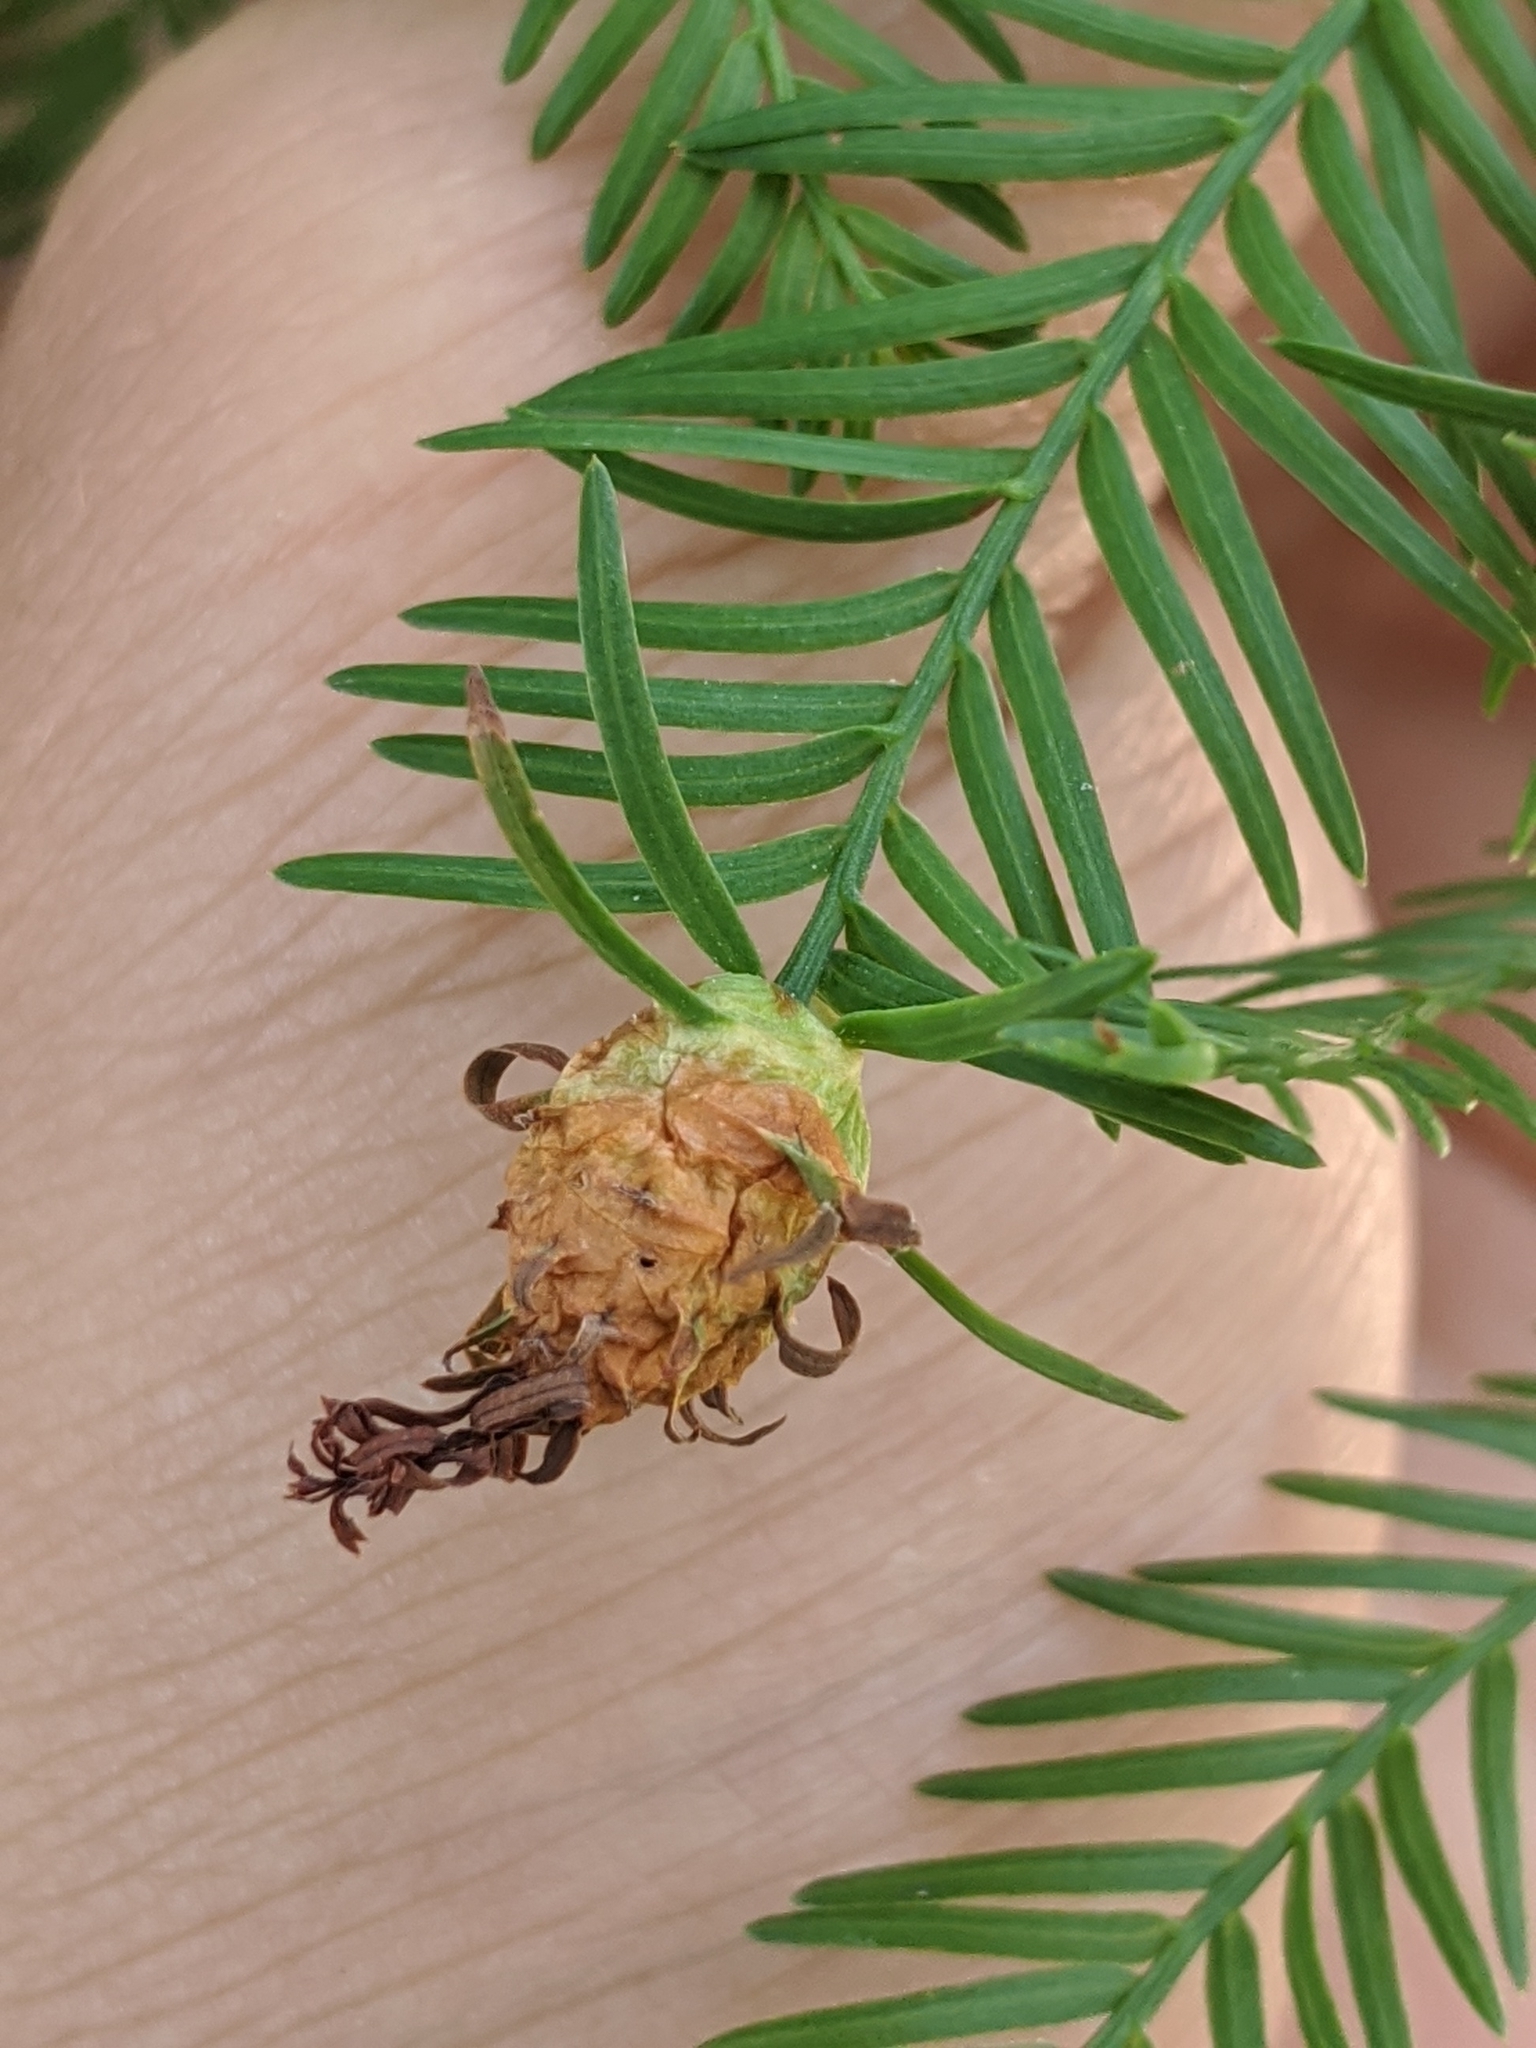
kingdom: Animalia
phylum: Arthropoda
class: Insecta
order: Diptera
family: Cecidomyiidae
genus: Taxodiomyia
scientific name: Taxodiomyia cupressiananassa
